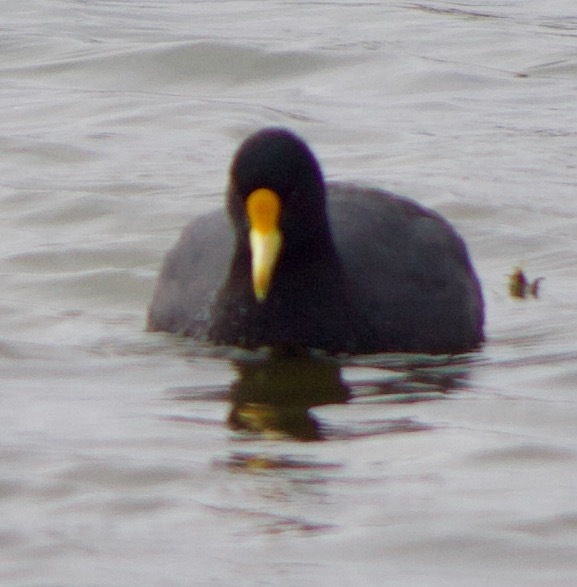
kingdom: Animalia
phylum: Chordata
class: Aves
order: Gruiformes
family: Rallidae
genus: Fulica
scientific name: Fulica leucoptera
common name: White-winged coot
